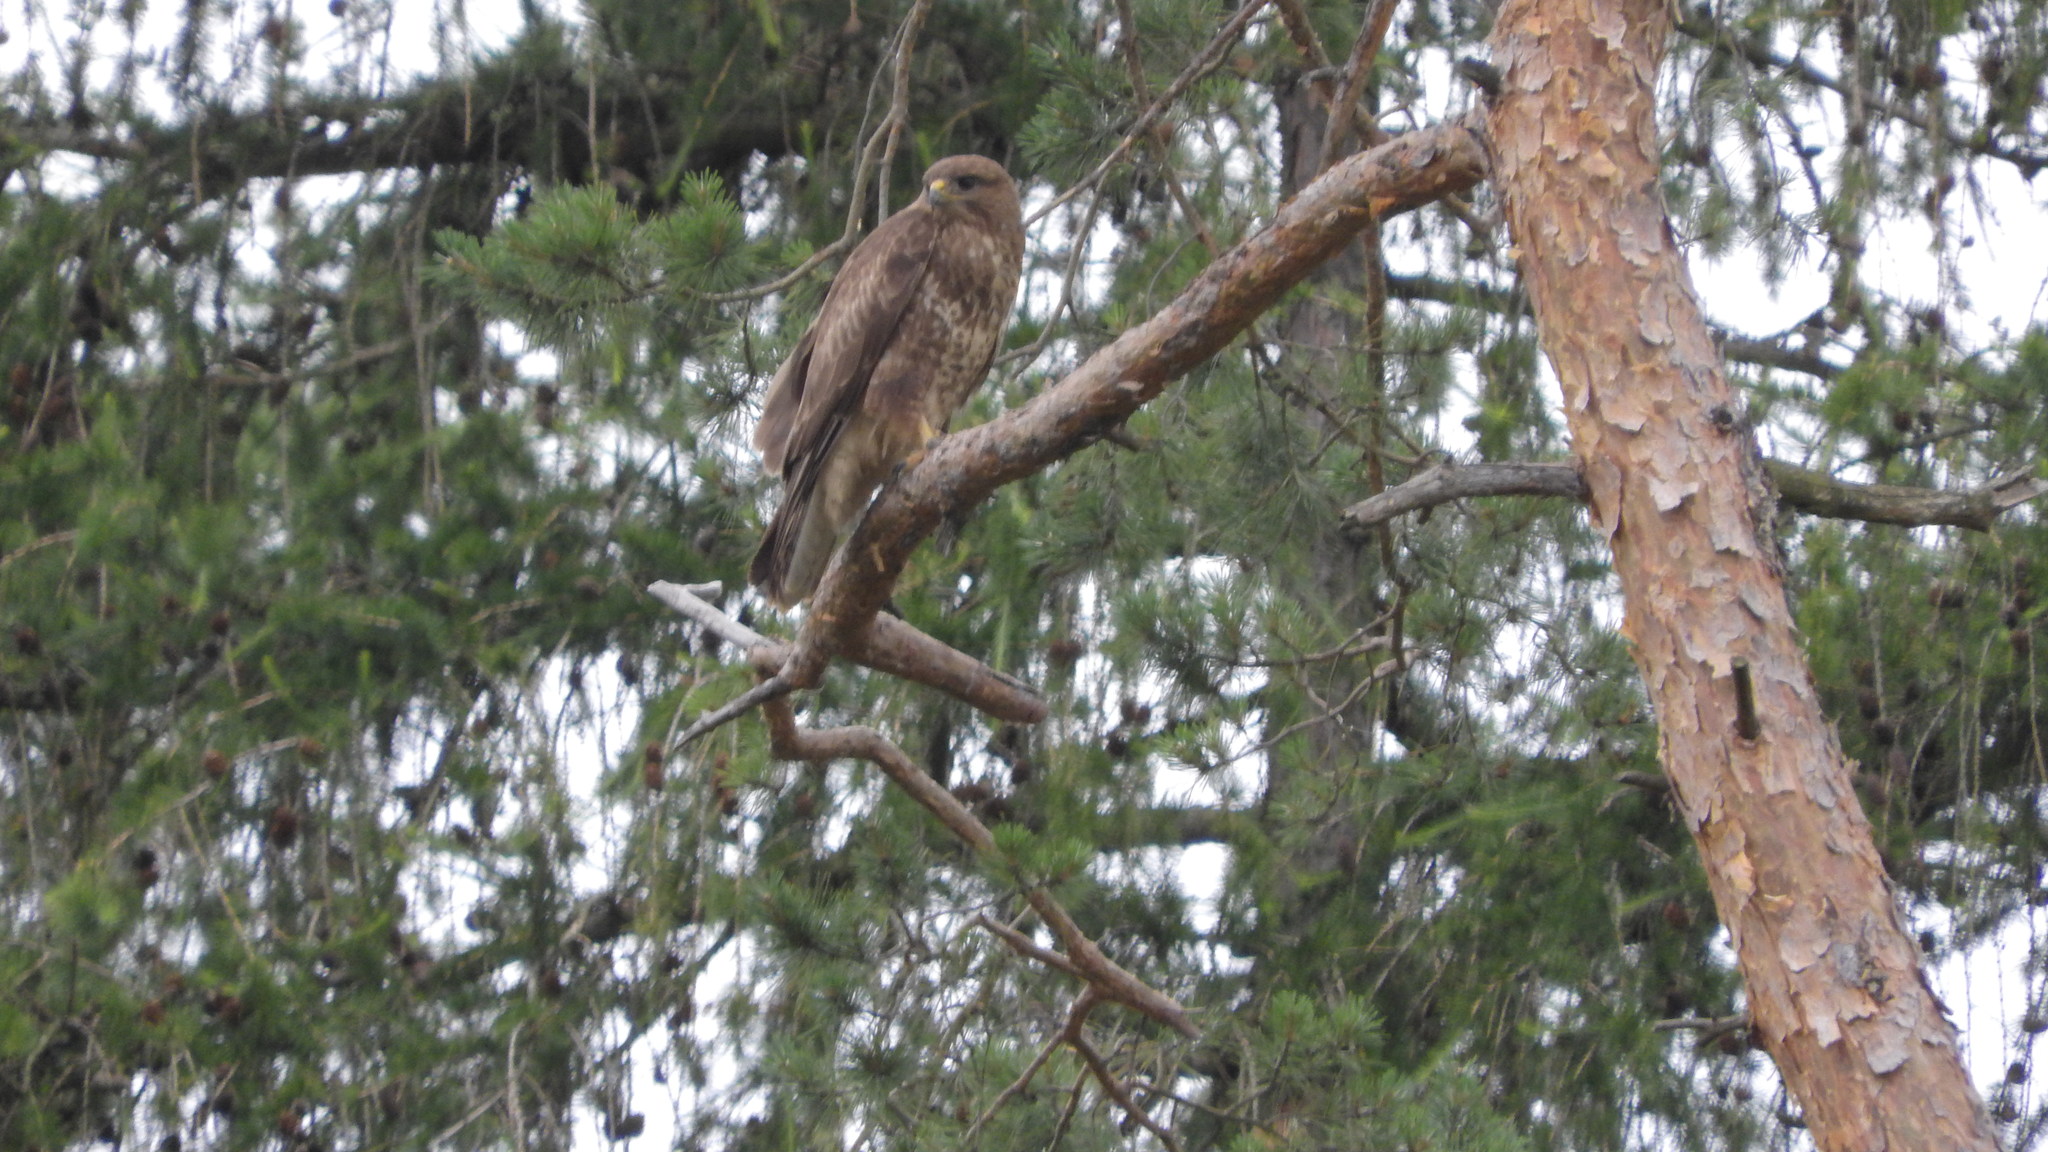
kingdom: Animalia
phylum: Chordata
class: Aves
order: Accipitriformes
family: Accipitridae
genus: Buteo
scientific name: Buteo buteo
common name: Common buzzard
